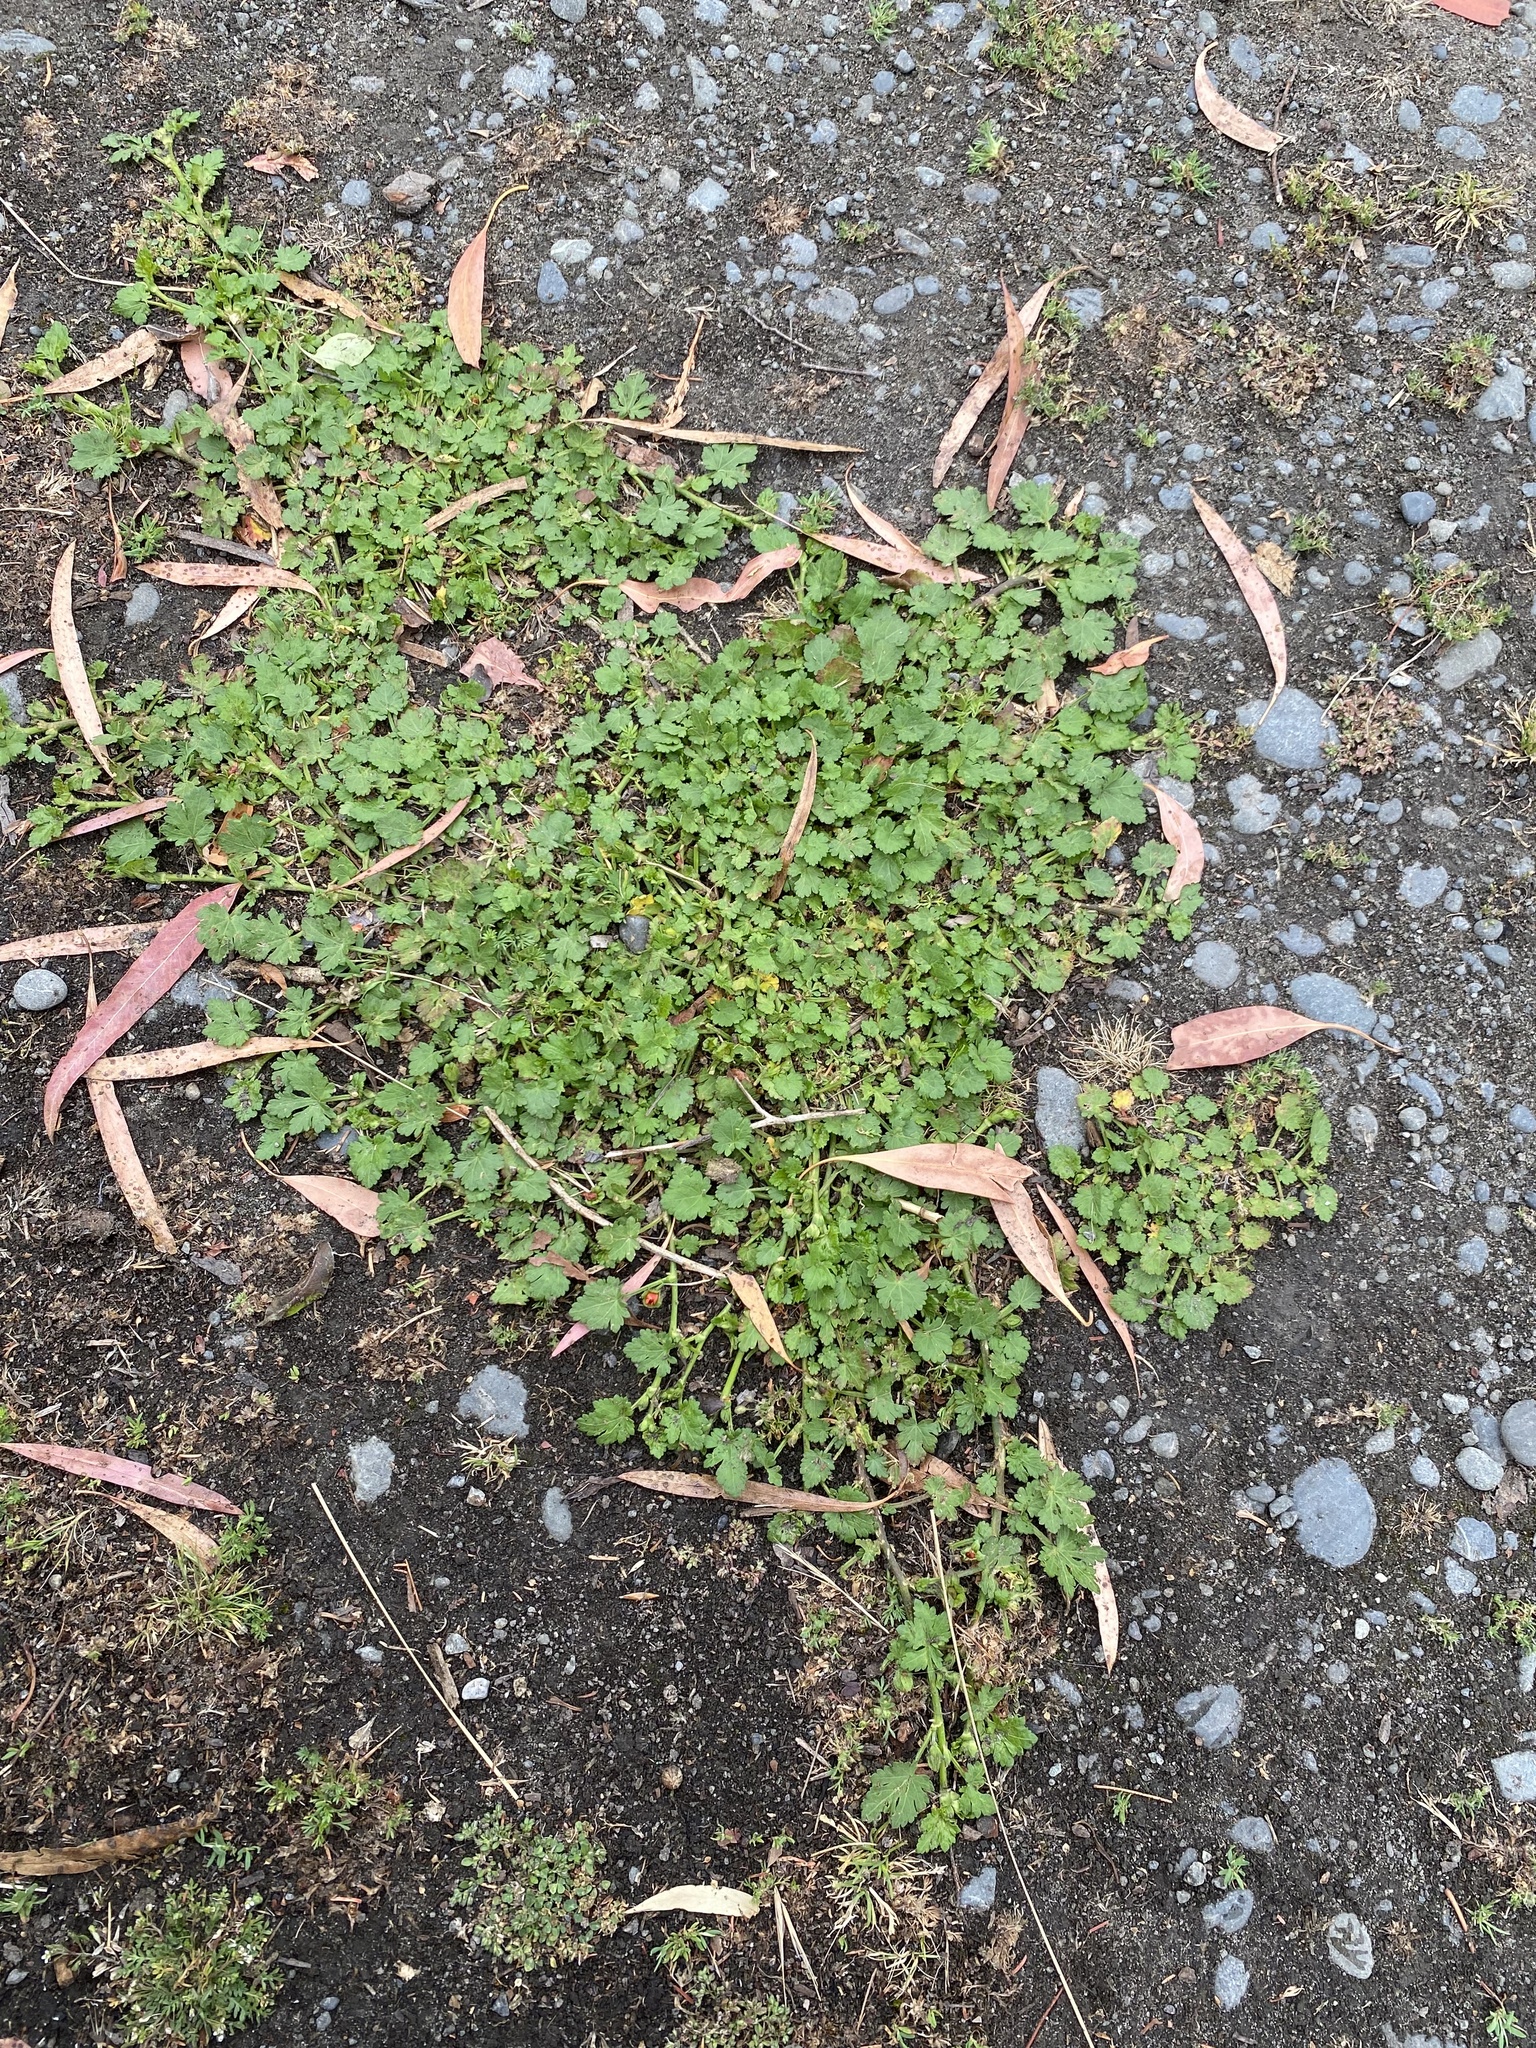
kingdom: Plantae
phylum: Tracheophyta
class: Magnoliopsida
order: Malvales
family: Malvaceae
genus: Modiola
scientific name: Modiola caroliniana
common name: Carolina bristlemallow
